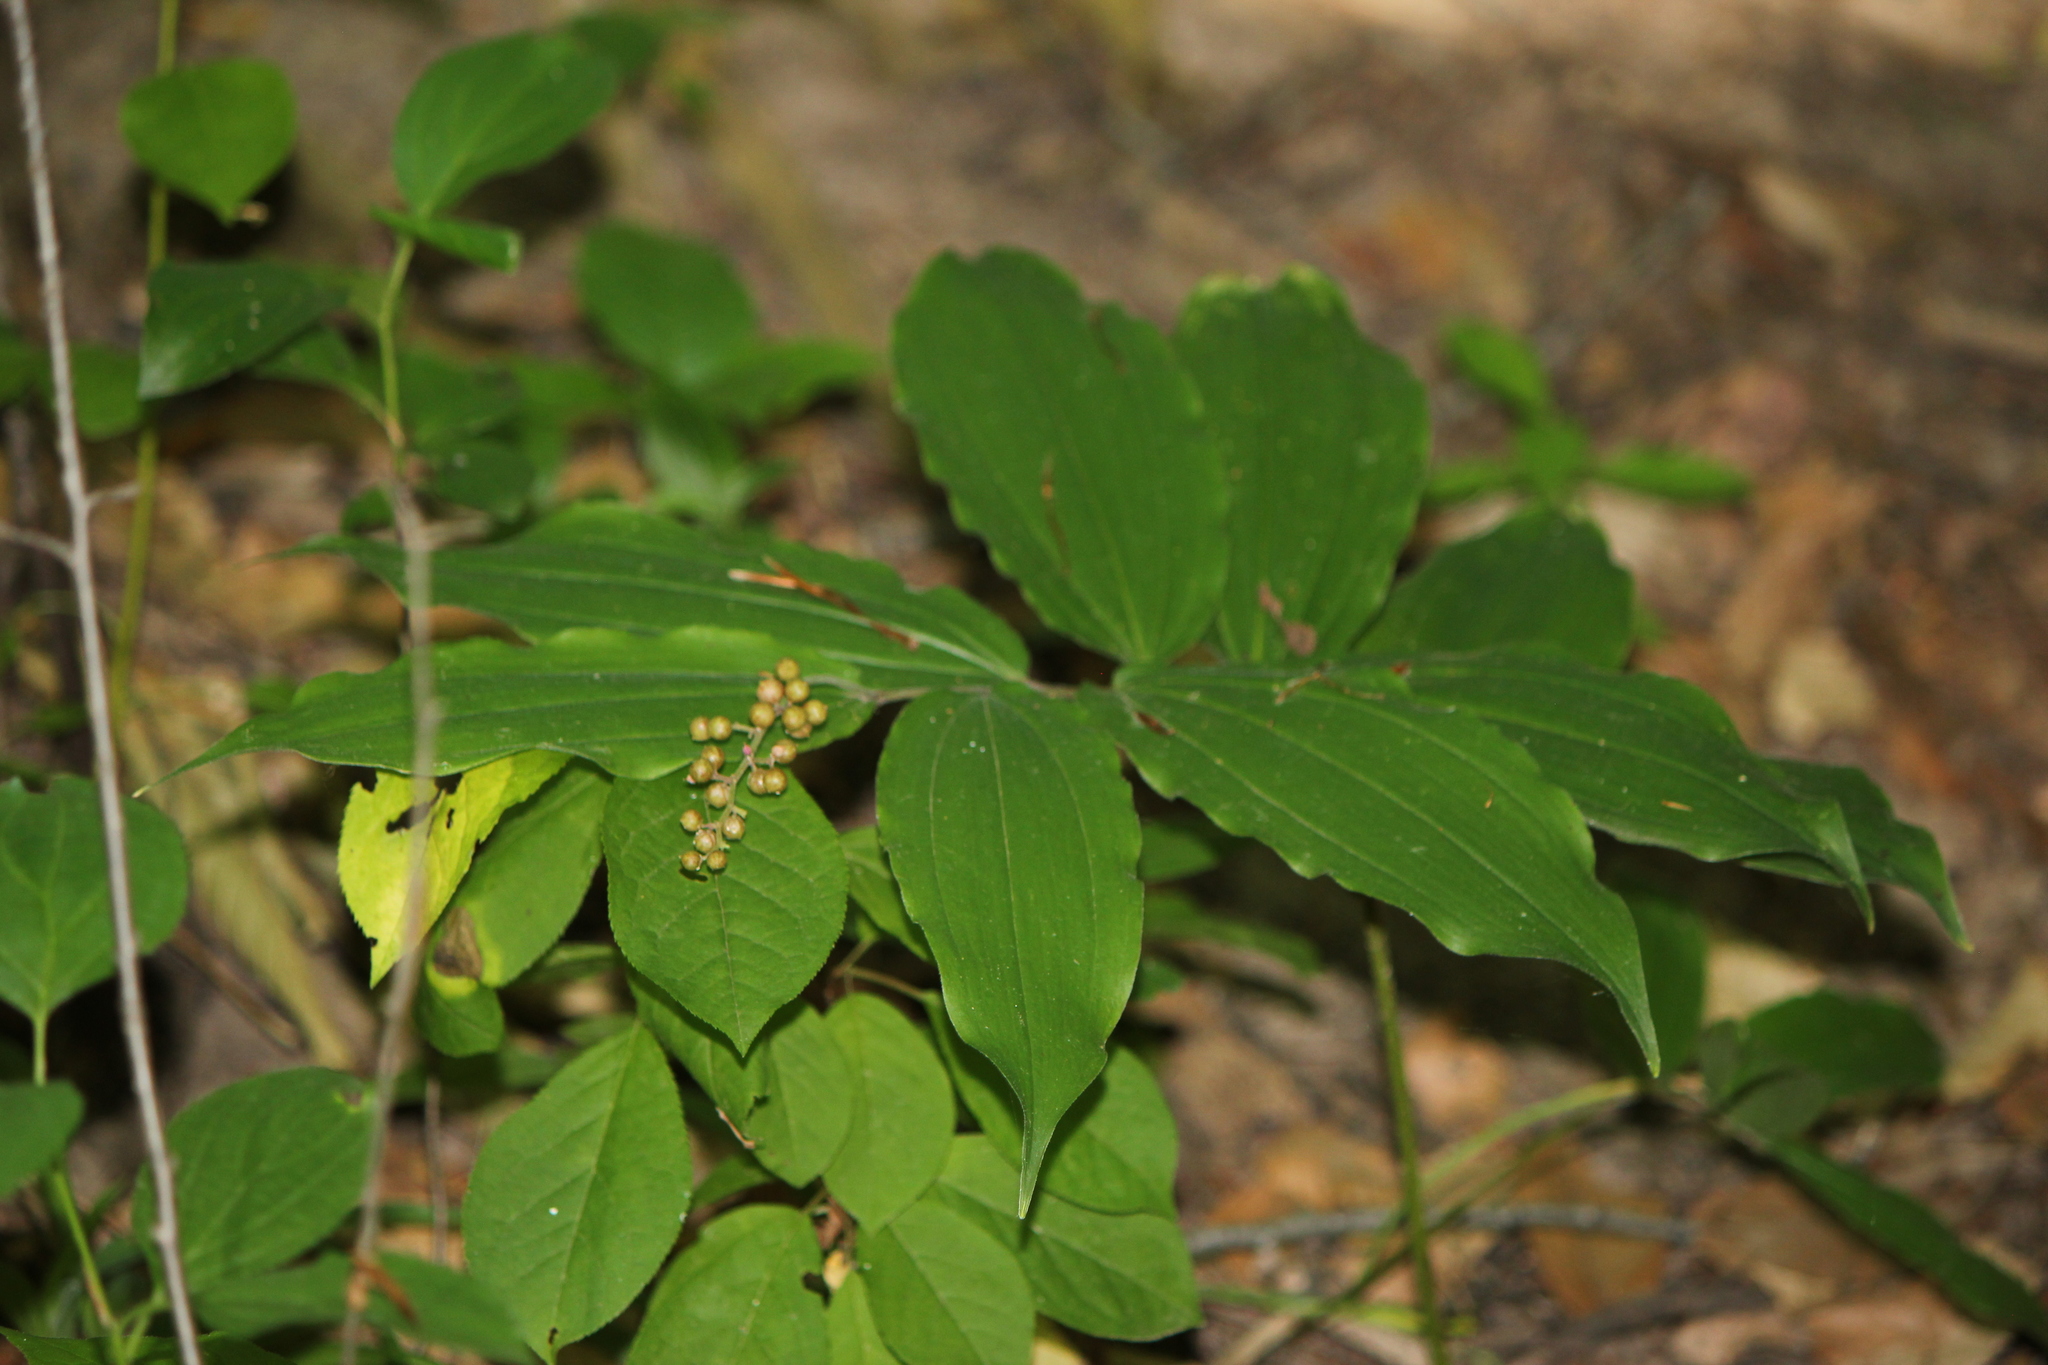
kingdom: Plantae
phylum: Tracheophyta
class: Liliopsida
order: Asparagales
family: Asparagaceae
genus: Maianthemum
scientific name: Maianthemum racemosum
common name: False spikenard
